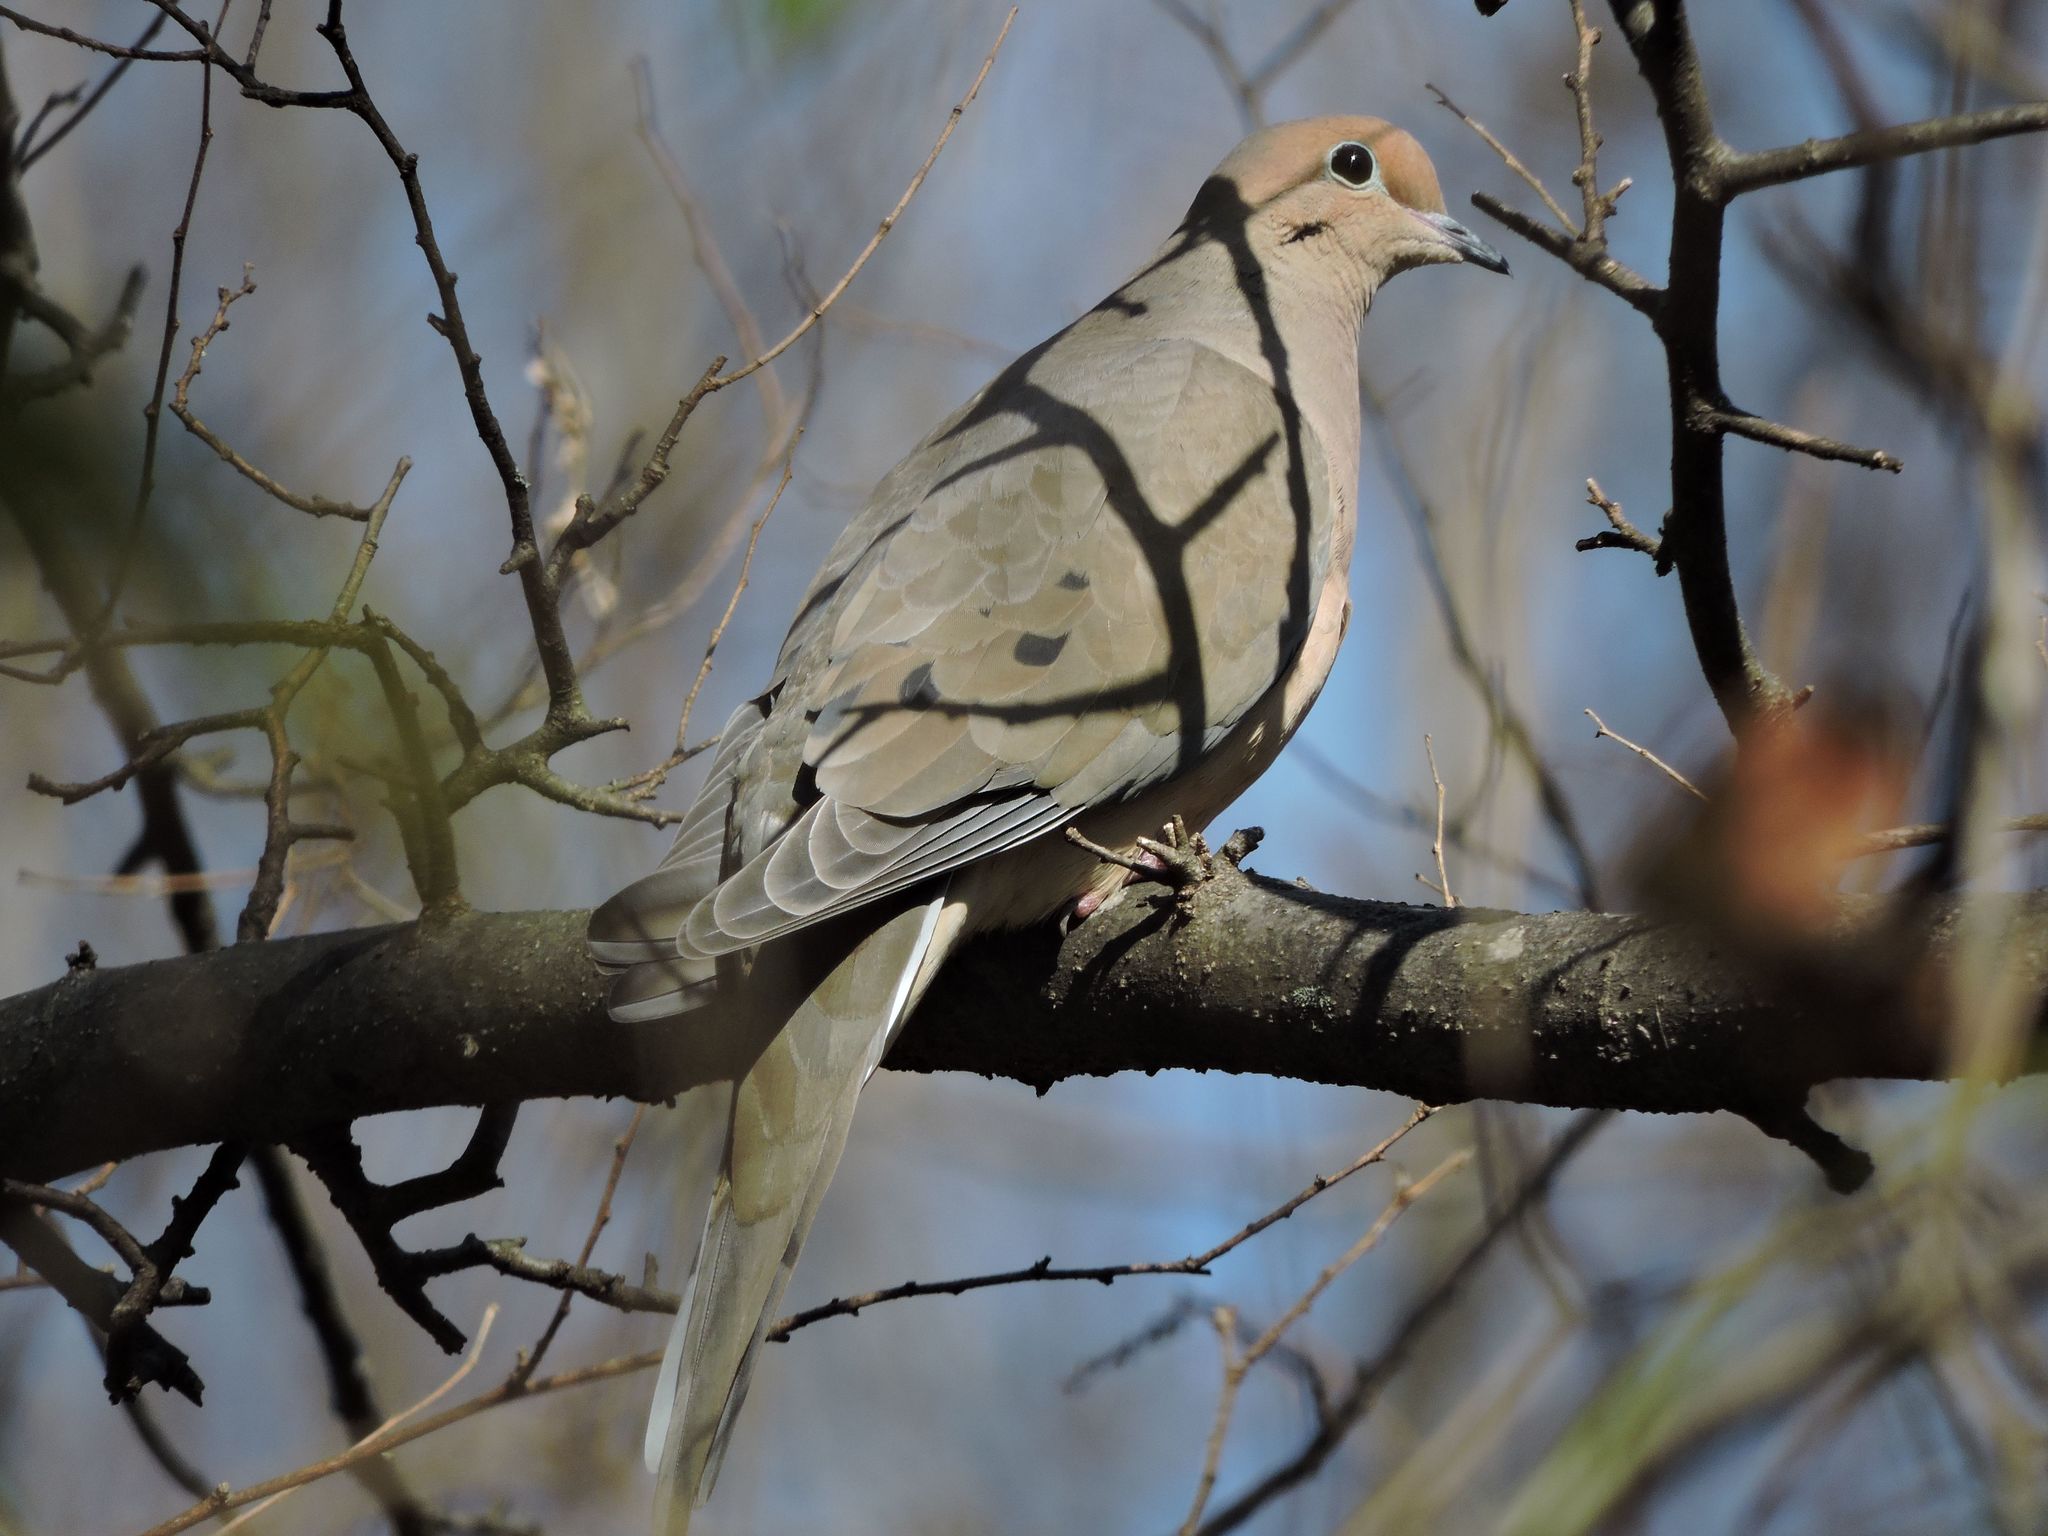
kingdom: Animalia
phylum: Chordata
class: Aves
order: Columbiformes
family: Columbidae
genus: Zenaida
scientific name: Zenaida macroura
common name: Mourning dove
